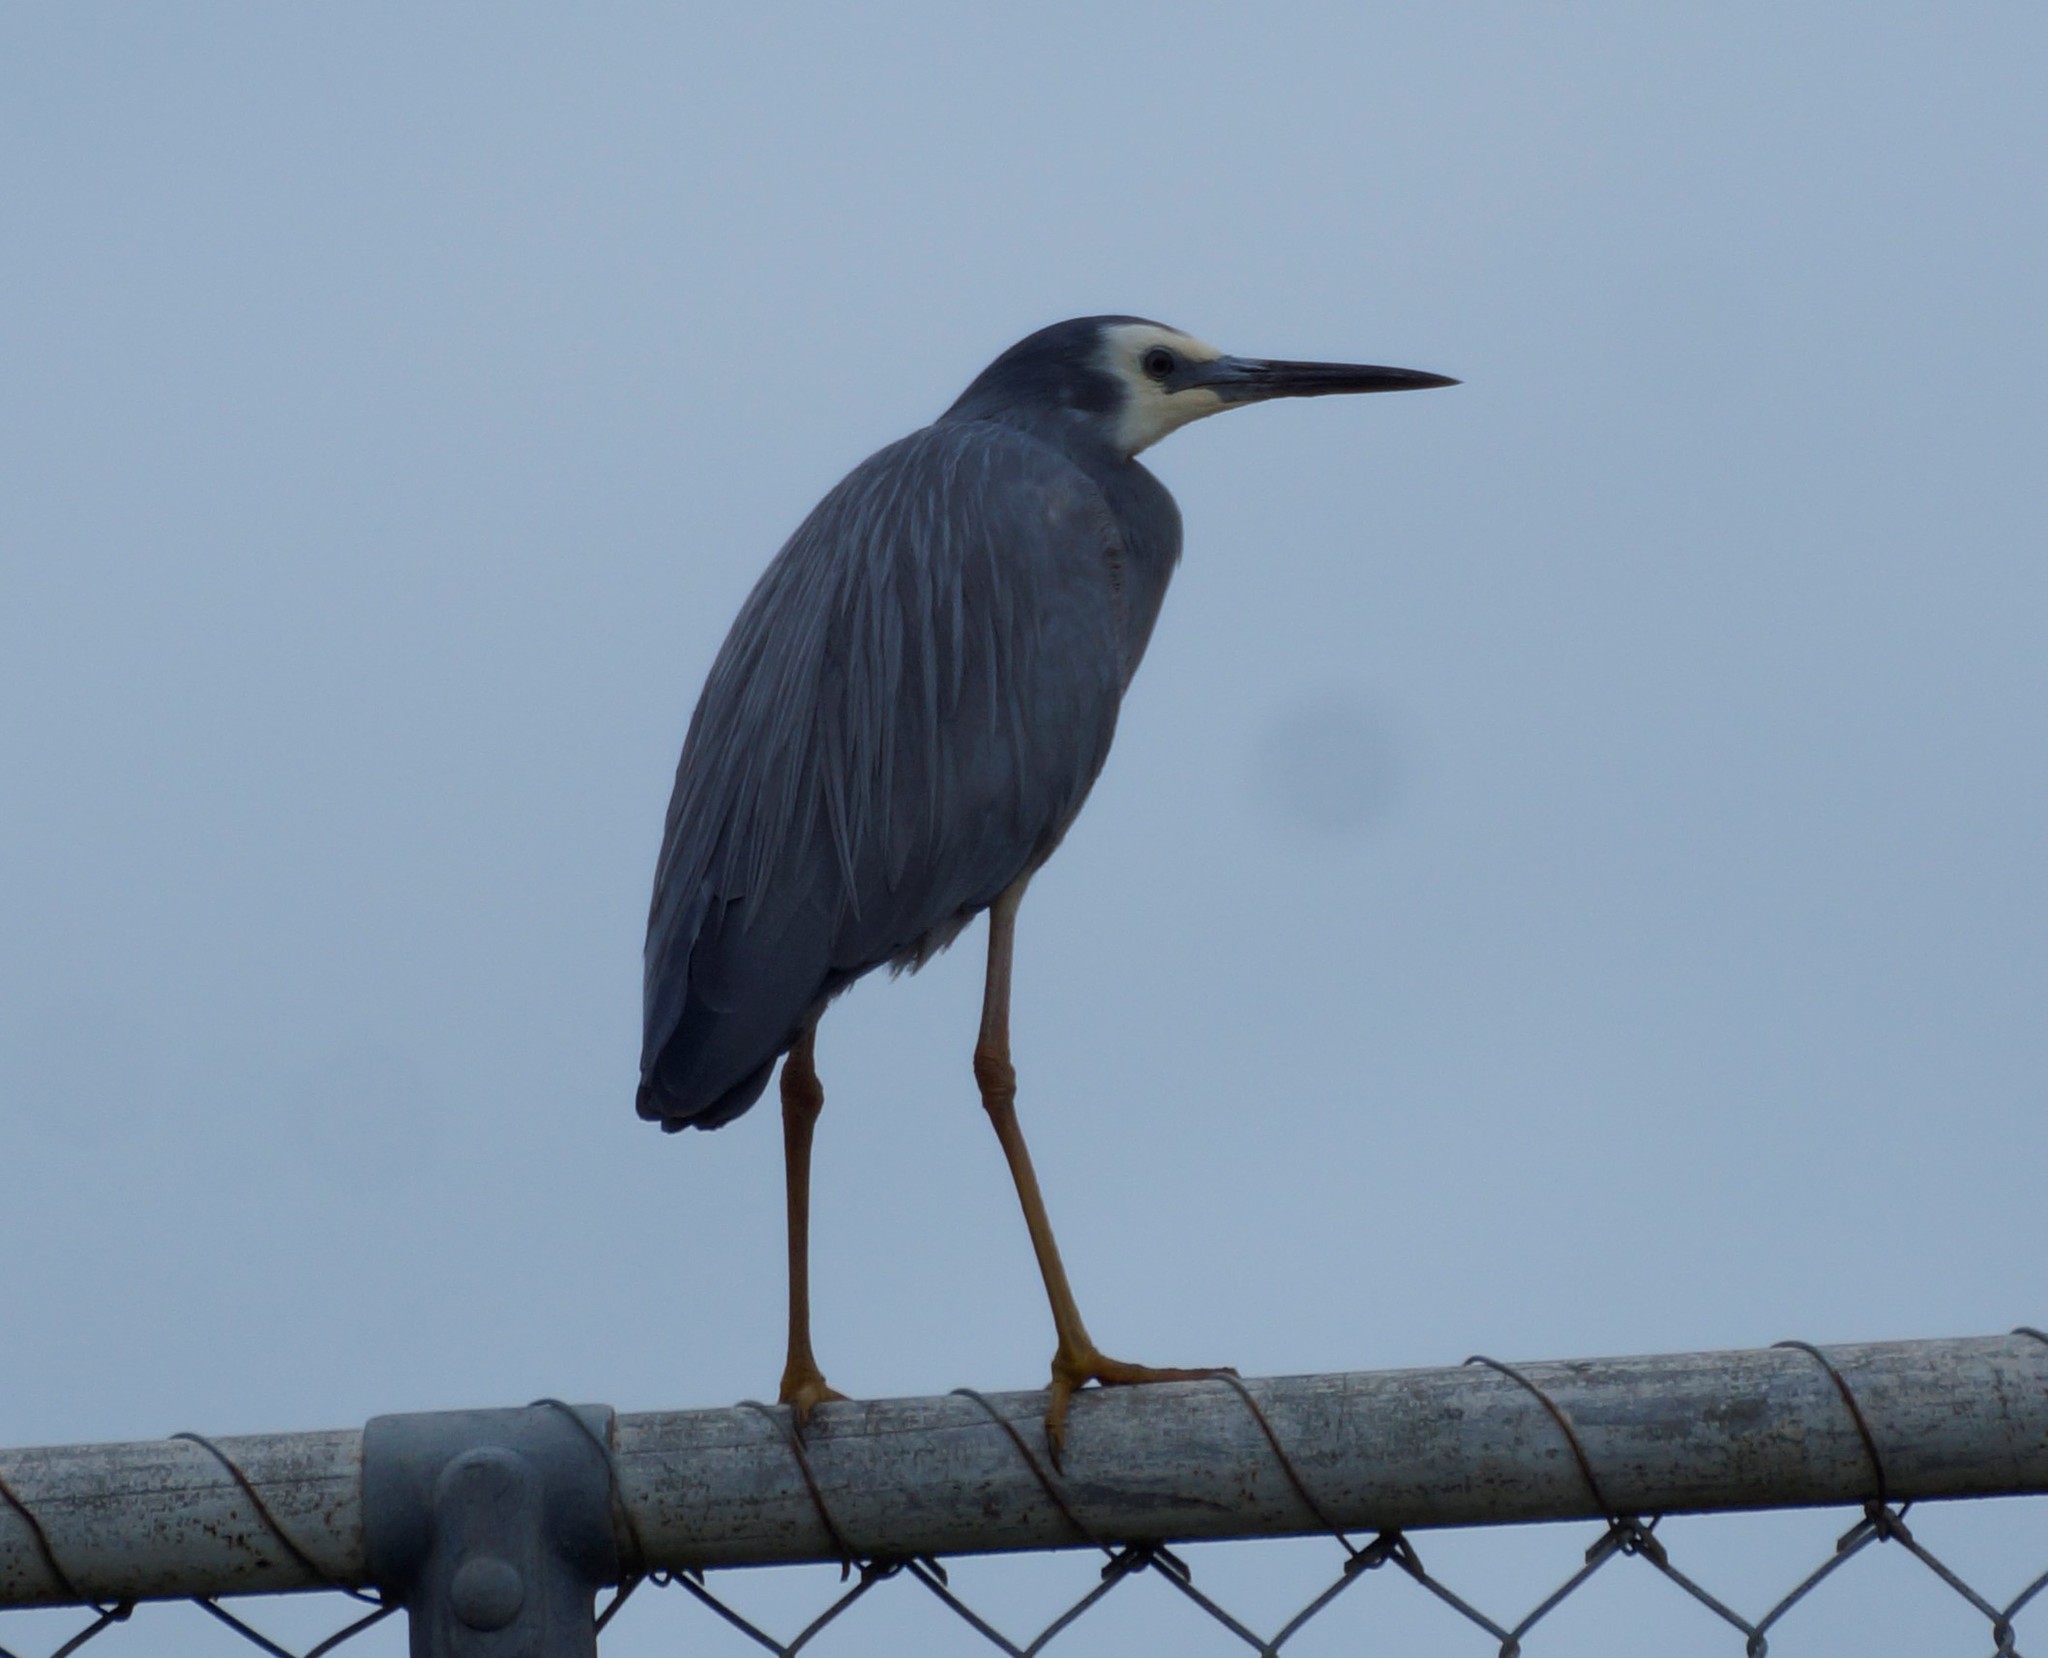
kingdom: Animalia
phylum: Chordata
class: Aves
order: Pelecaniformes
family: Ardeidae
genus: Egretta
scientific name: Egretta novaehollandiae
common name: White-faced heron
